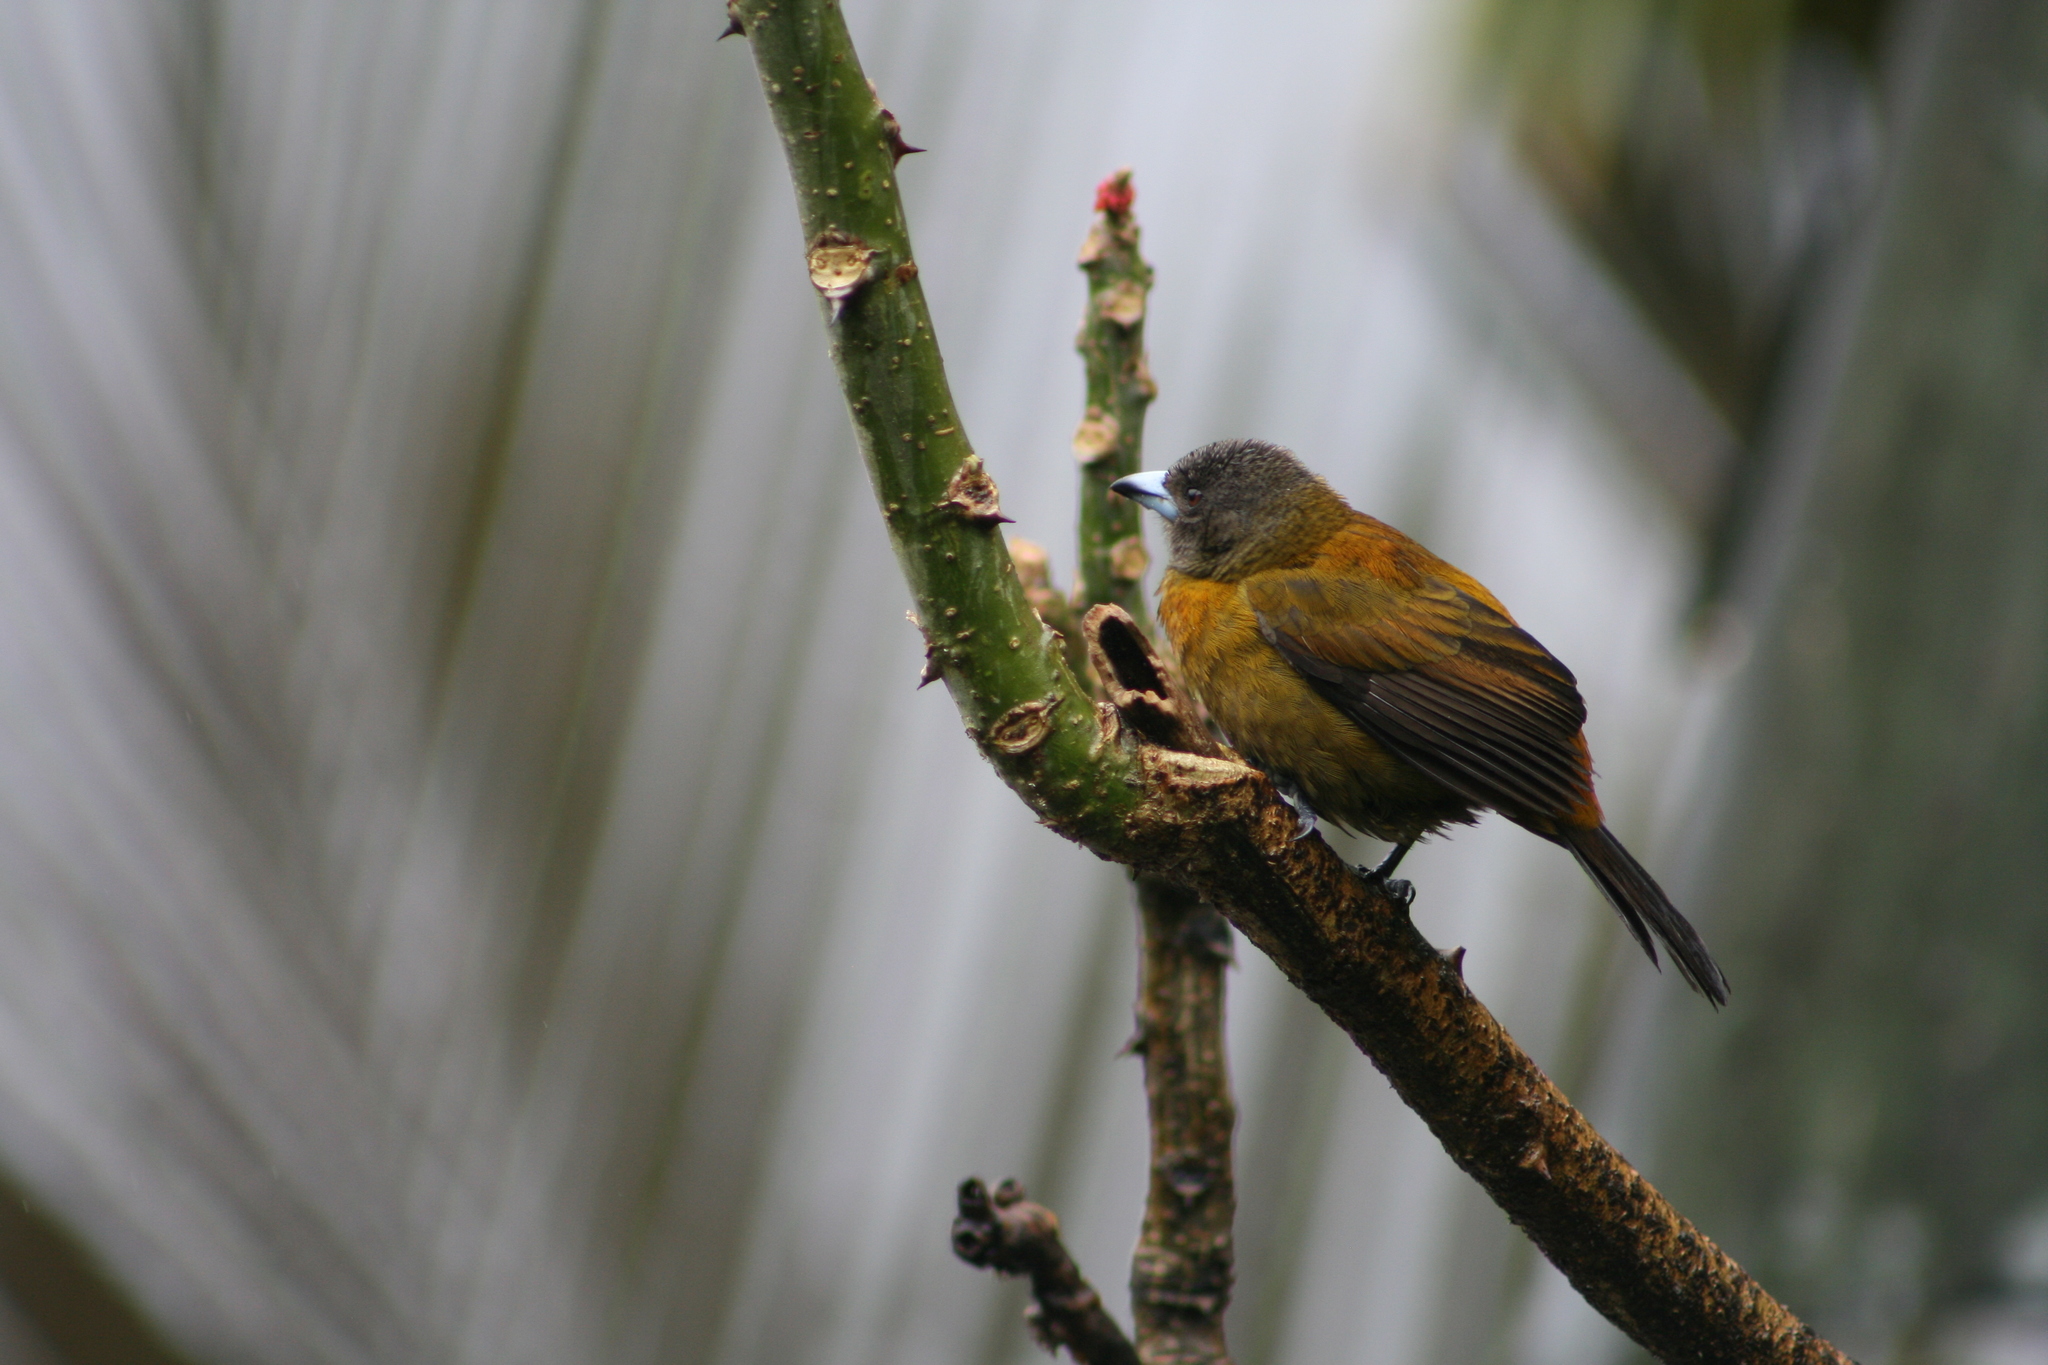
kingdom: Animalia
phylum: Chordata
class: Aves
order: Passeriformes
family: Thraupidae
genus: Ramphocelus
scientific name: Ramphocelus passerinii
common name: Passerini's tanager
